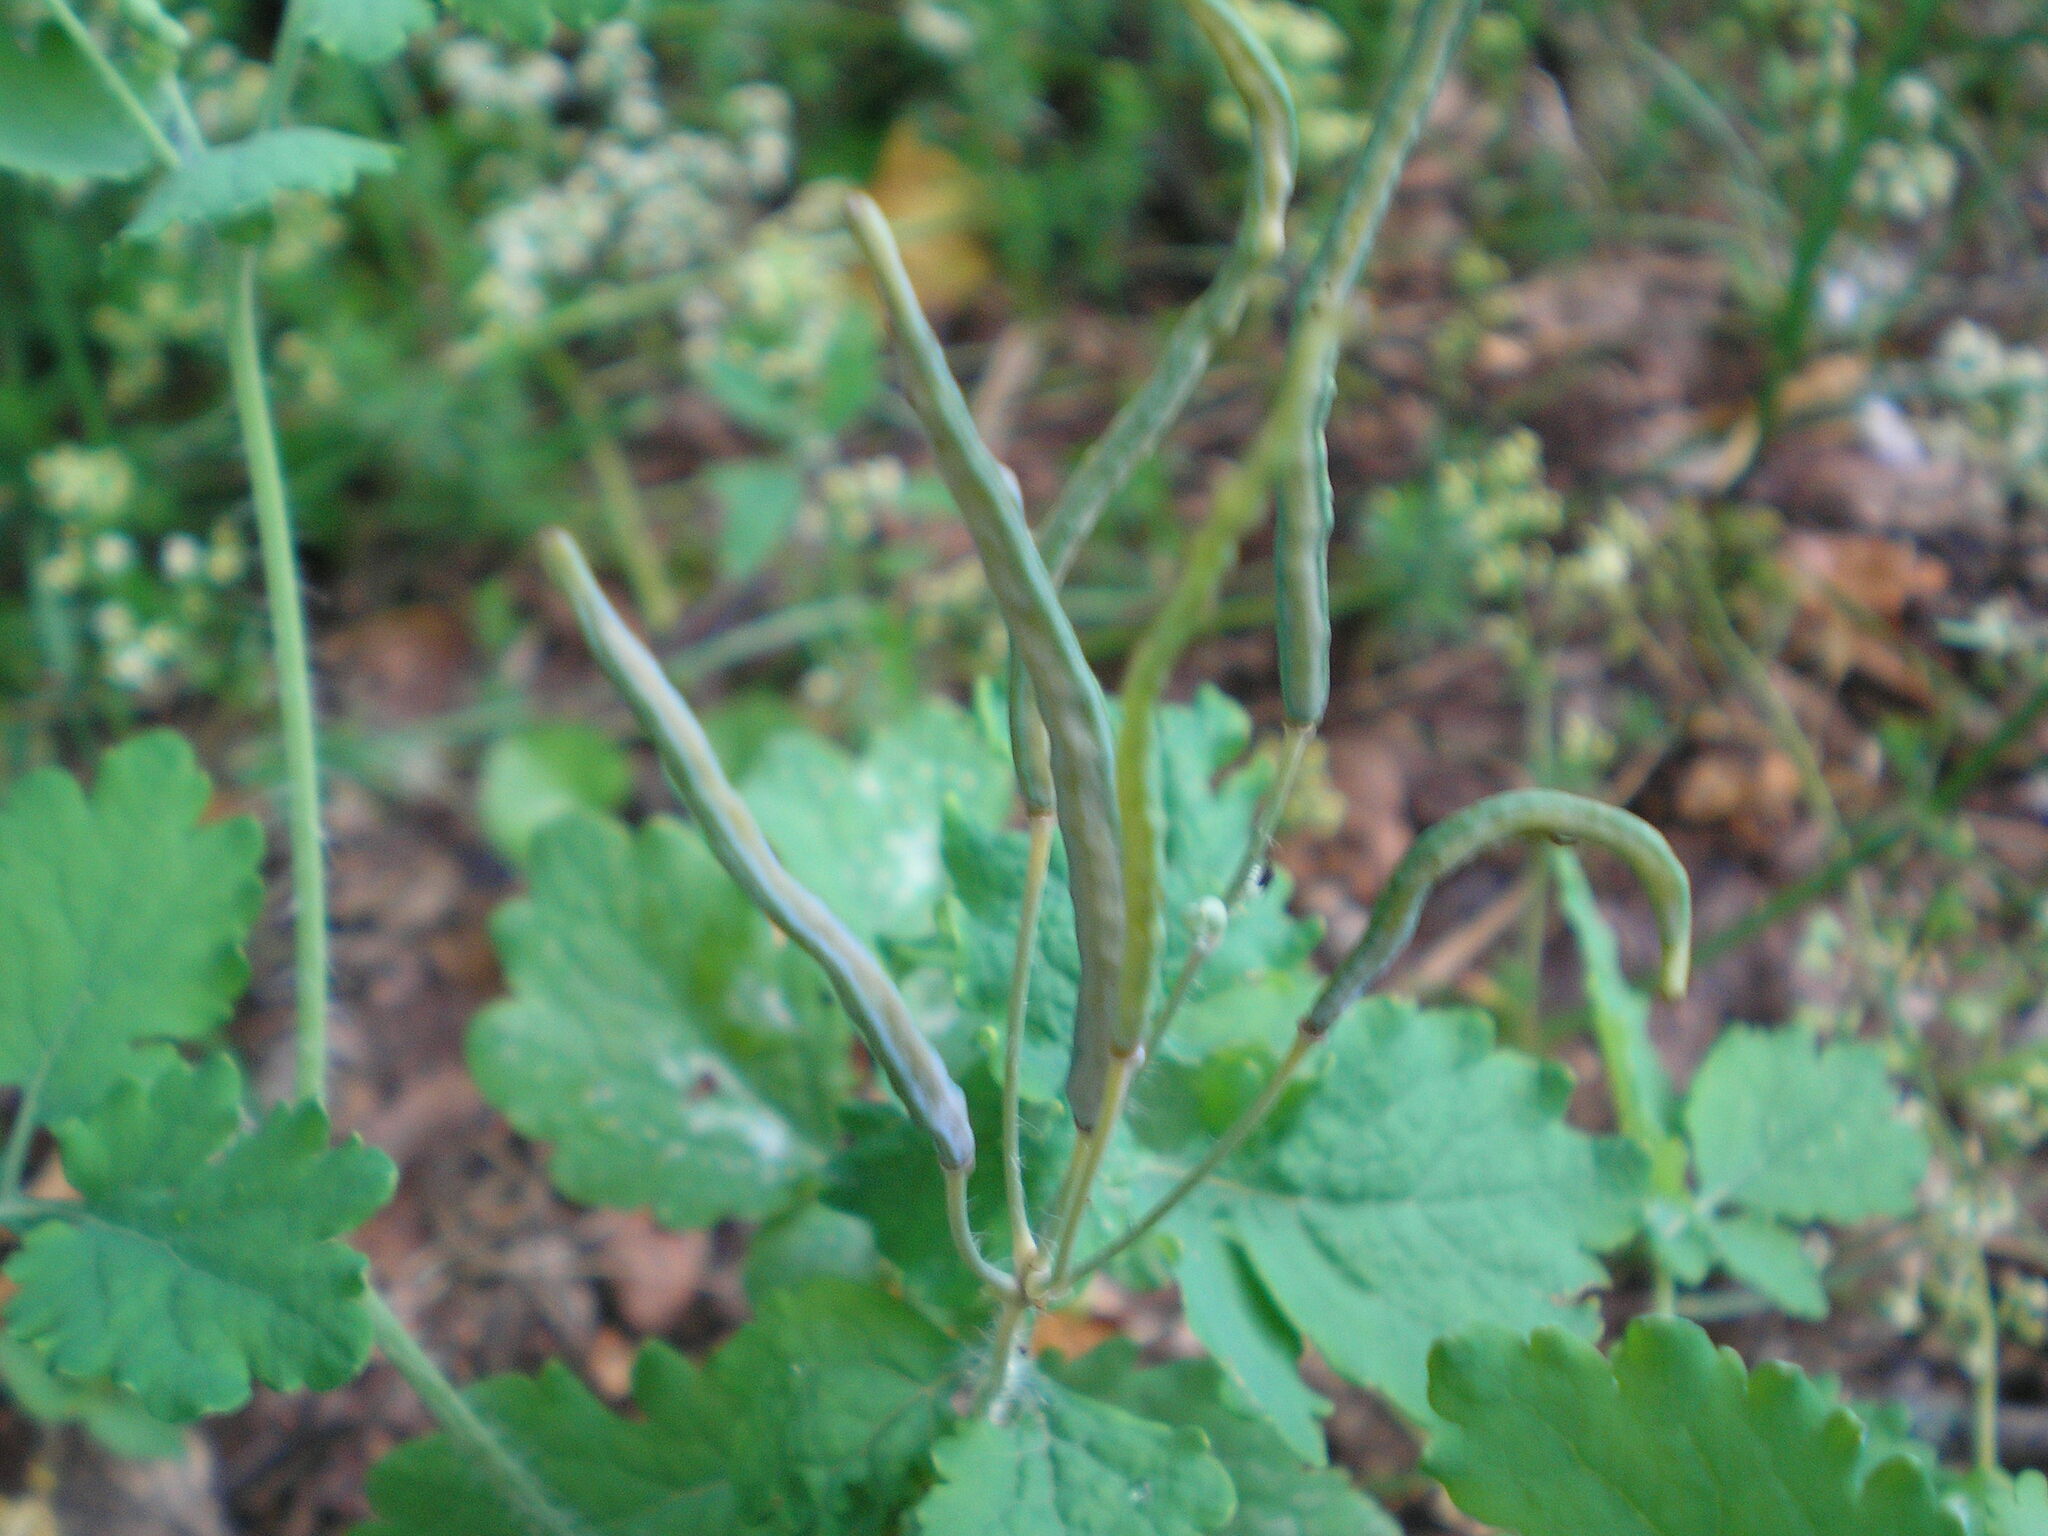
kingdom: Plantae
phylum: Tracheophyta
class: Magnoliopsida
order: Ranunculales
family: Papaveraceae
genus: Chelidonium
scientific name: Chelidonium majus
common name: Greater celandine
